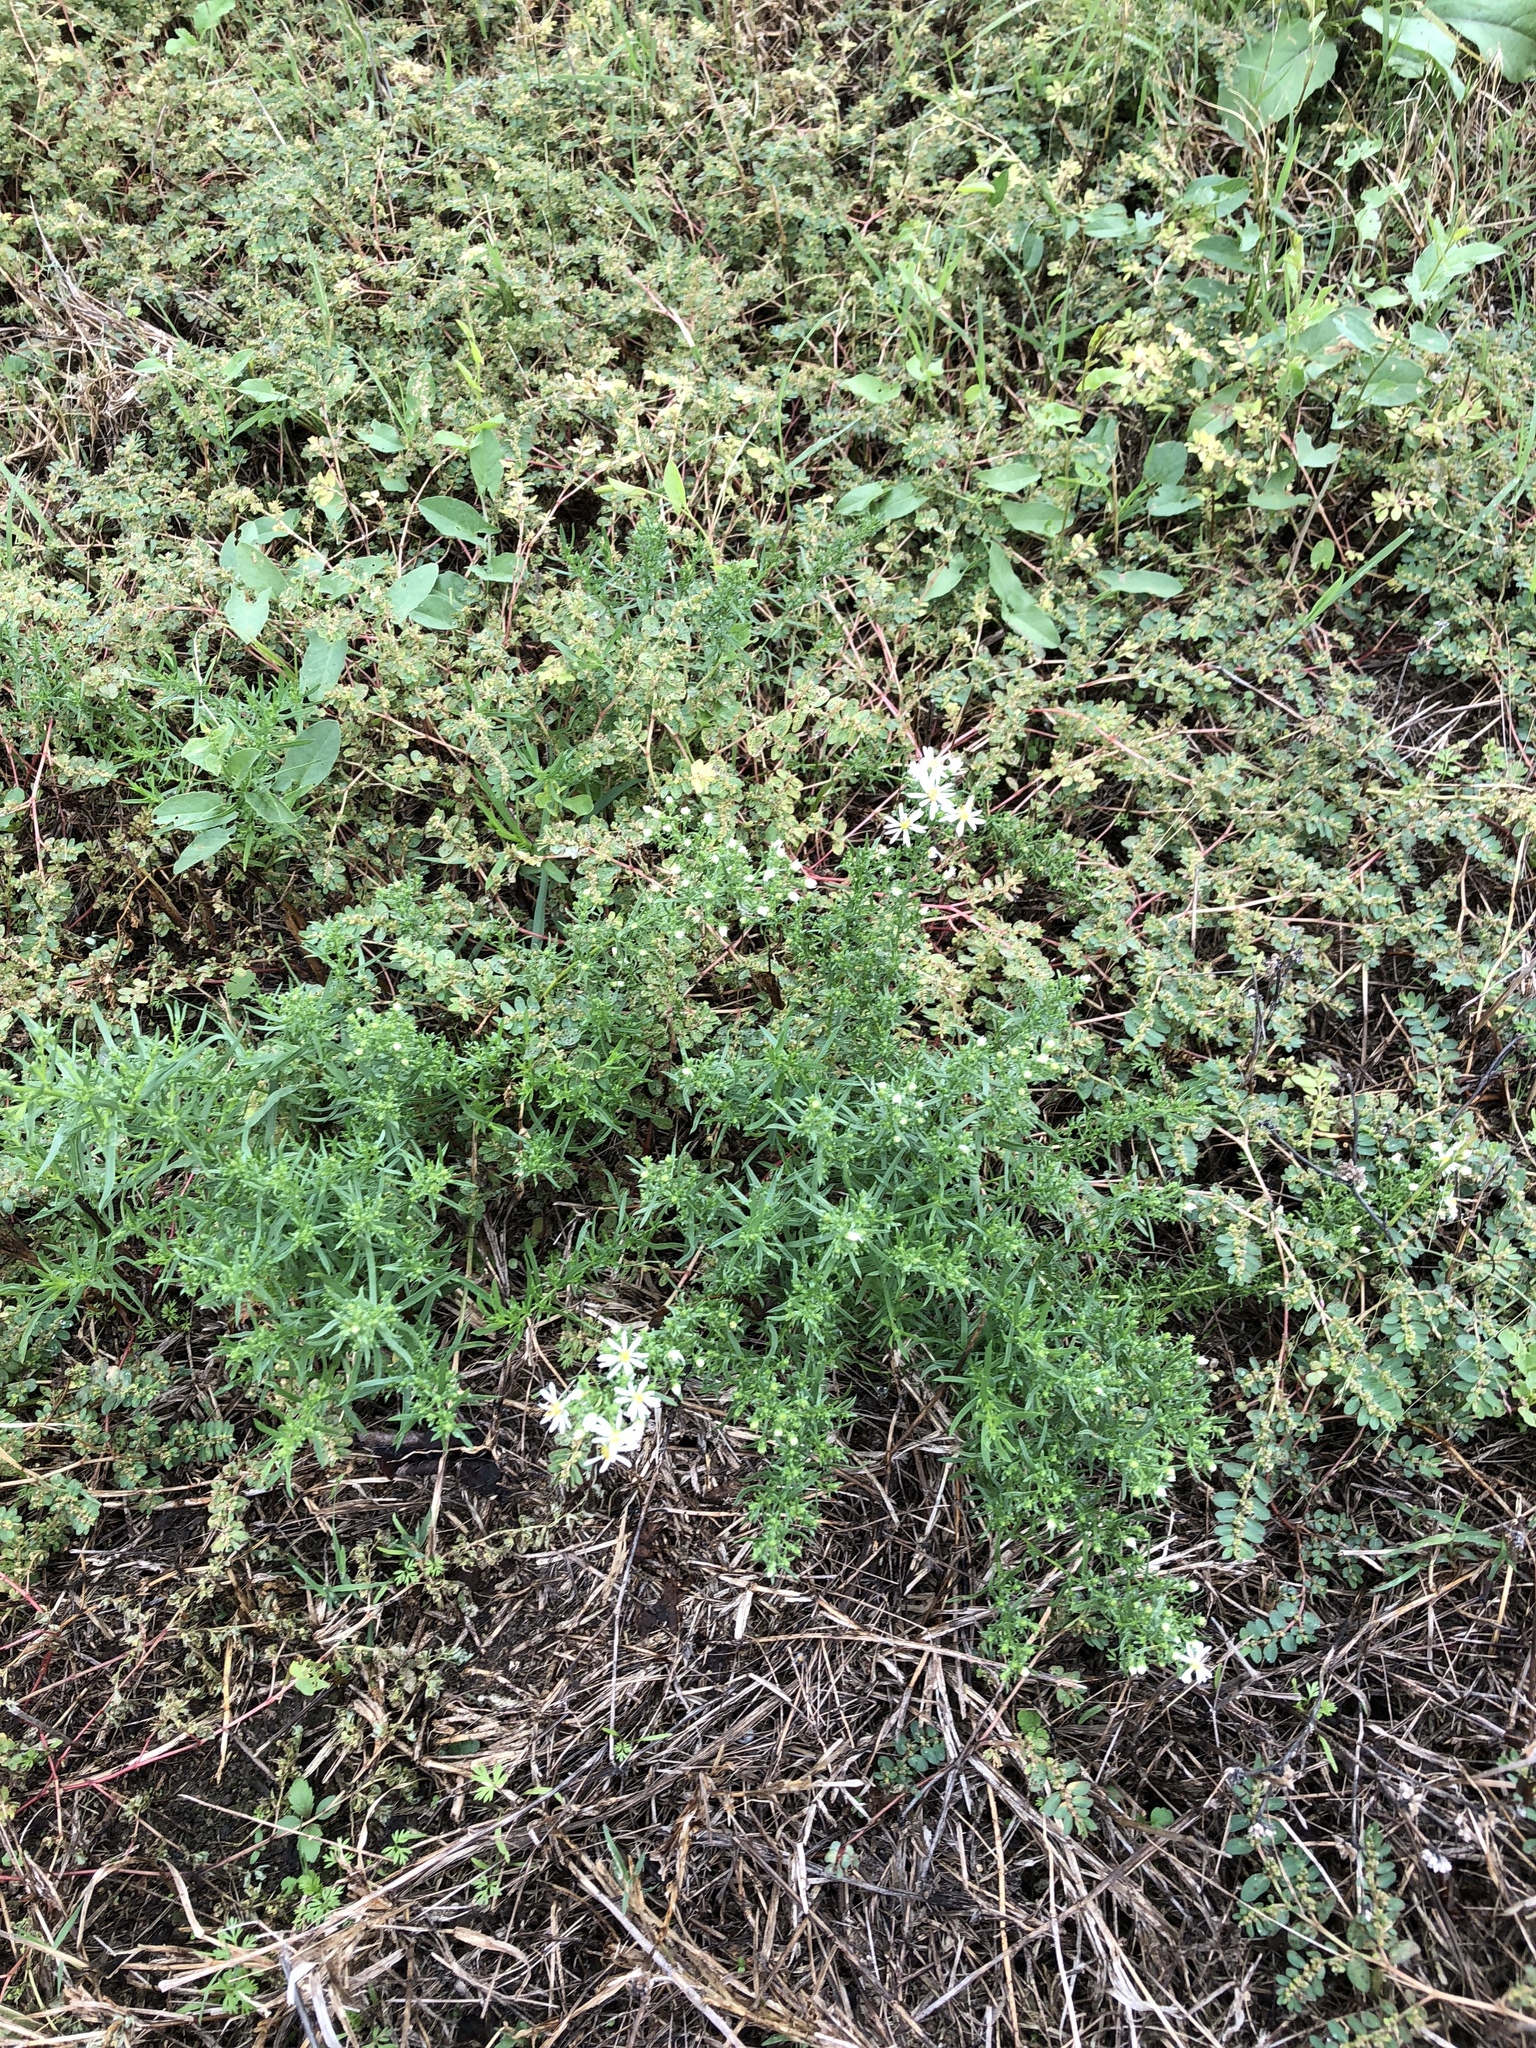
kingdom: Plantae
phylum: Tracheophyta
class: Magnoliopsida
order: Asterales
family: Asteraceae
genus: Symphyotrichum
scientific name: Symphyotrichum ericoides
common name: Heath aster
